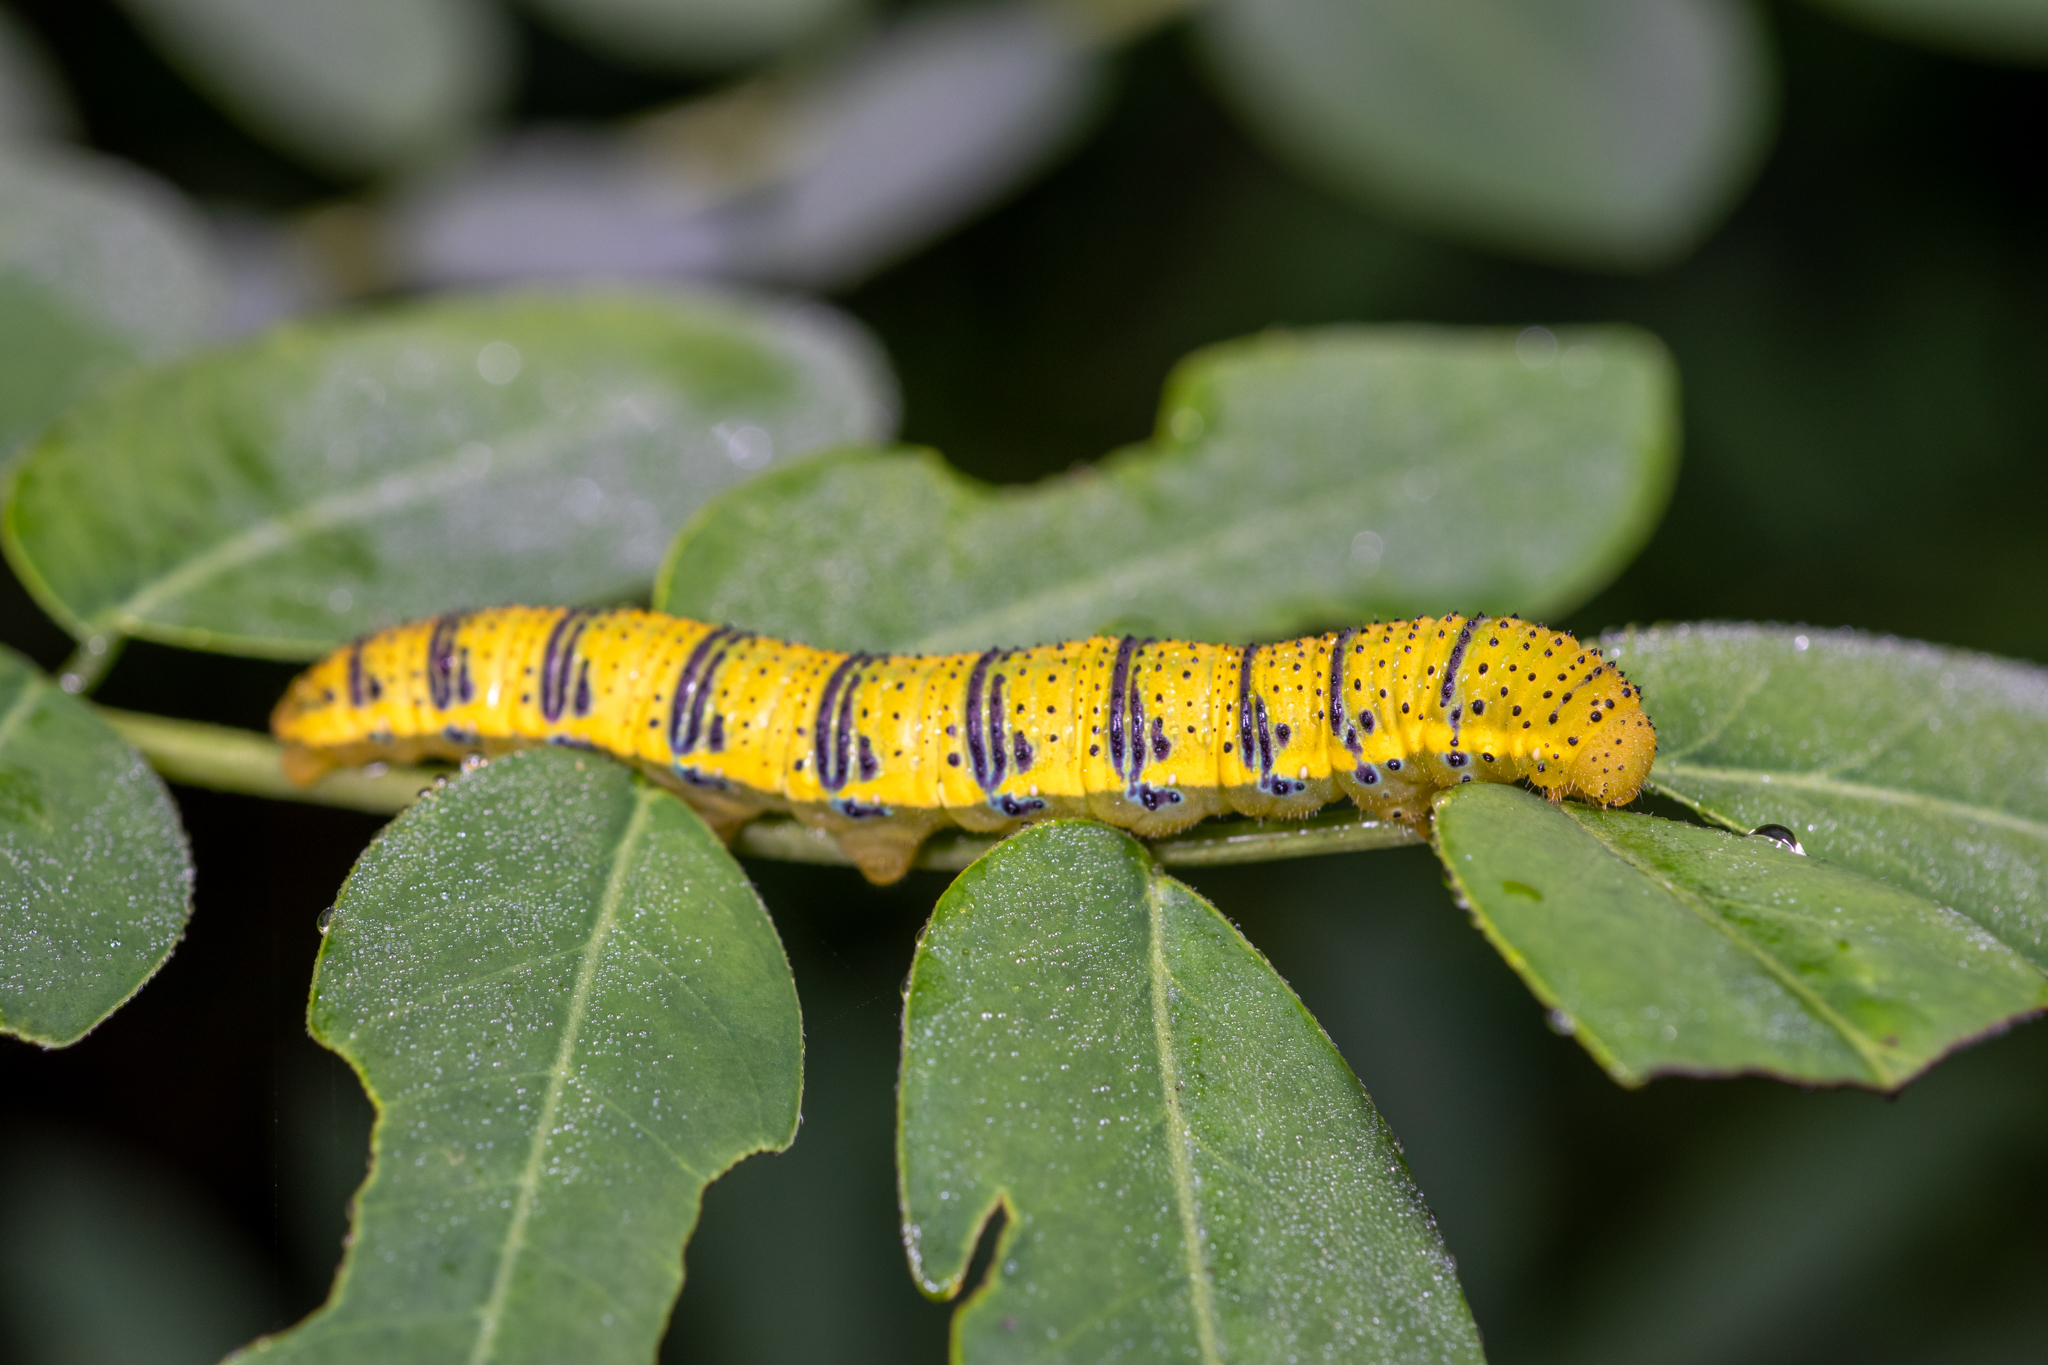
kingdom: Animalia
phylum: Arthropoda
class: Insecta
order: Lepidoptera
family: Pieridae
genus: Phoebis
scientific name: Phoebis sennae
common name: Cloudless sulphur
